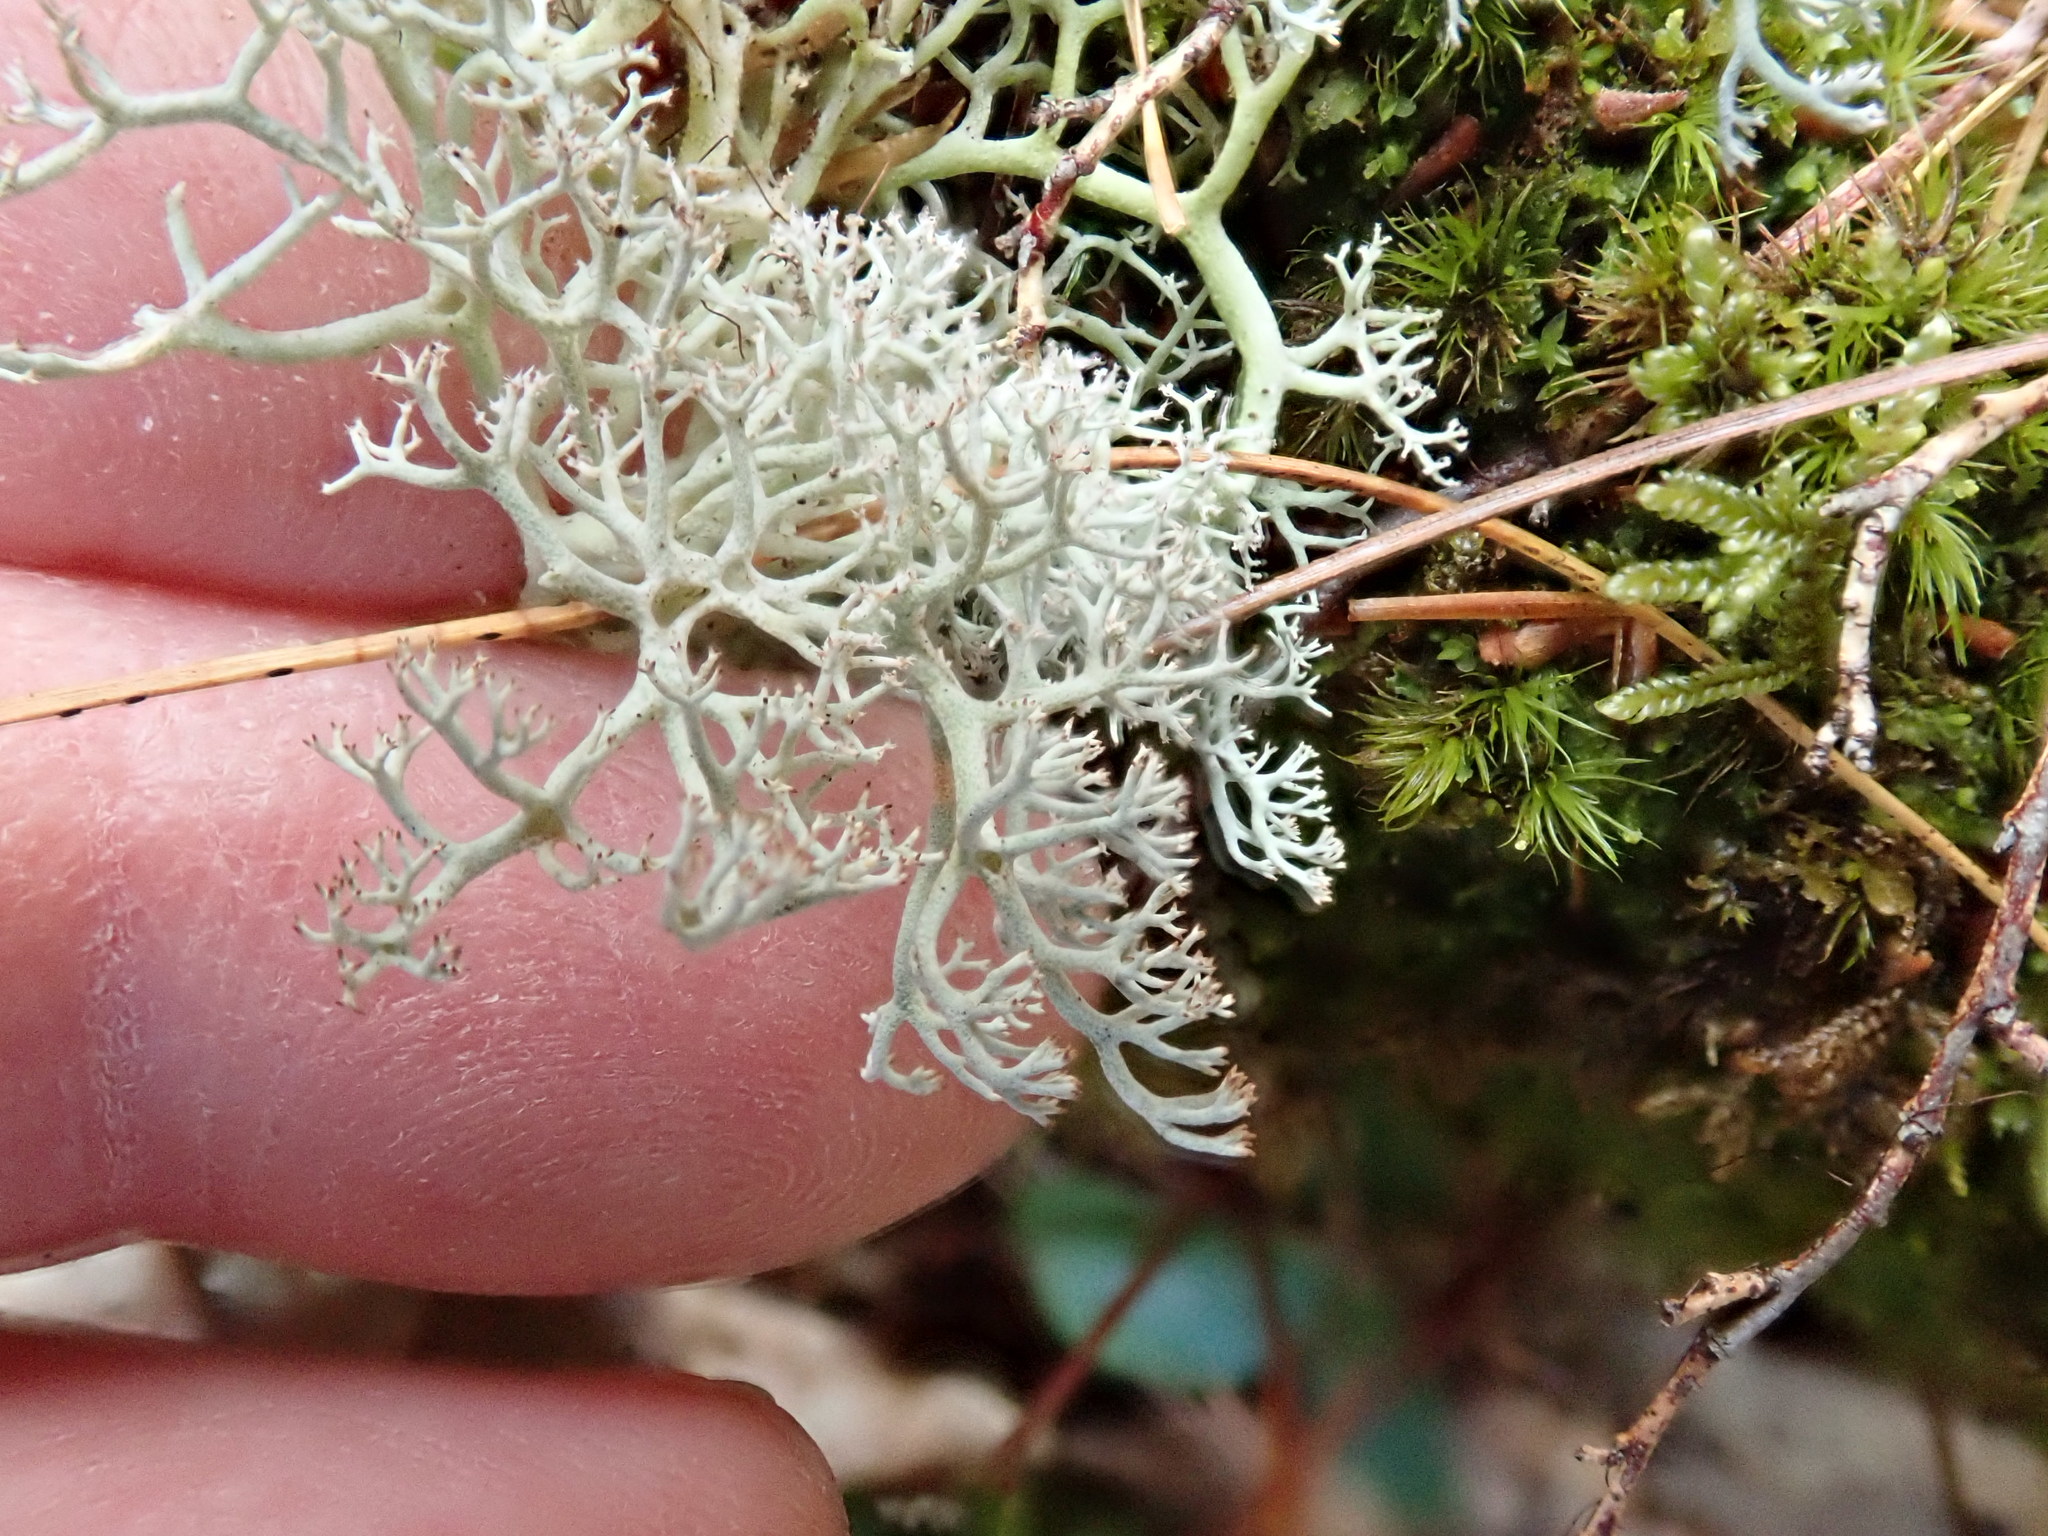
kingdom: Fungi
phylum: Ascomycota
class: Lecanoromycetes
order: Lecanorales
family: Cladoniaceae
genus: Cladonia
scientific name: Cladonia rangiferina
